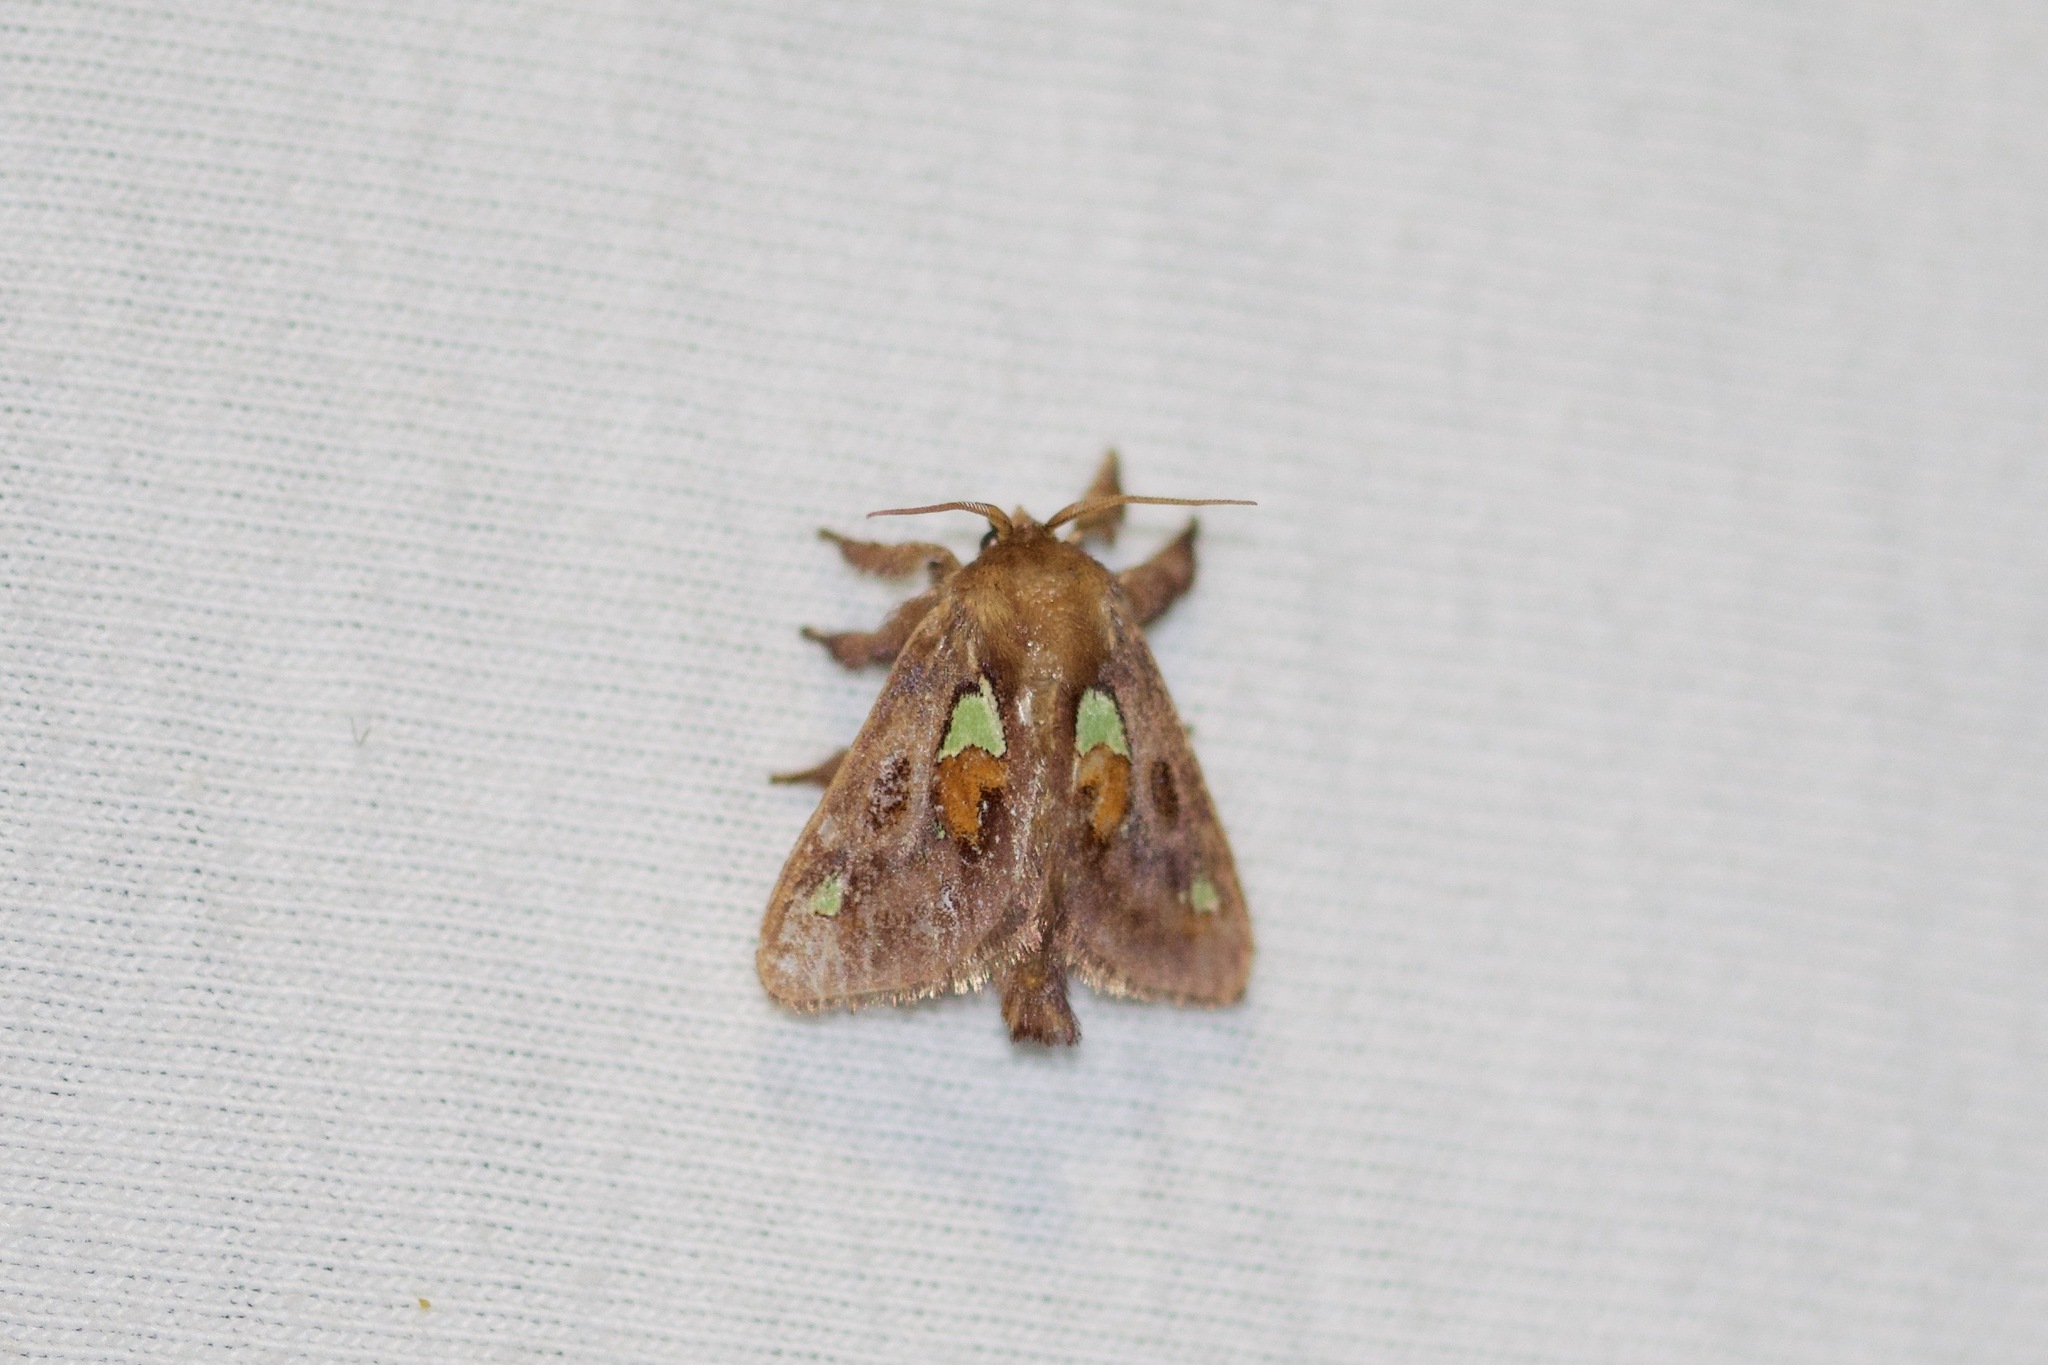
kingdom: Animalia
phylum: Arthropoda
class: Insecta
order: Lepidoptera
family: Limacodidae
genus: Euclea
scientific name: Euclea delphinii
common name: Spiny oak-slug moth
